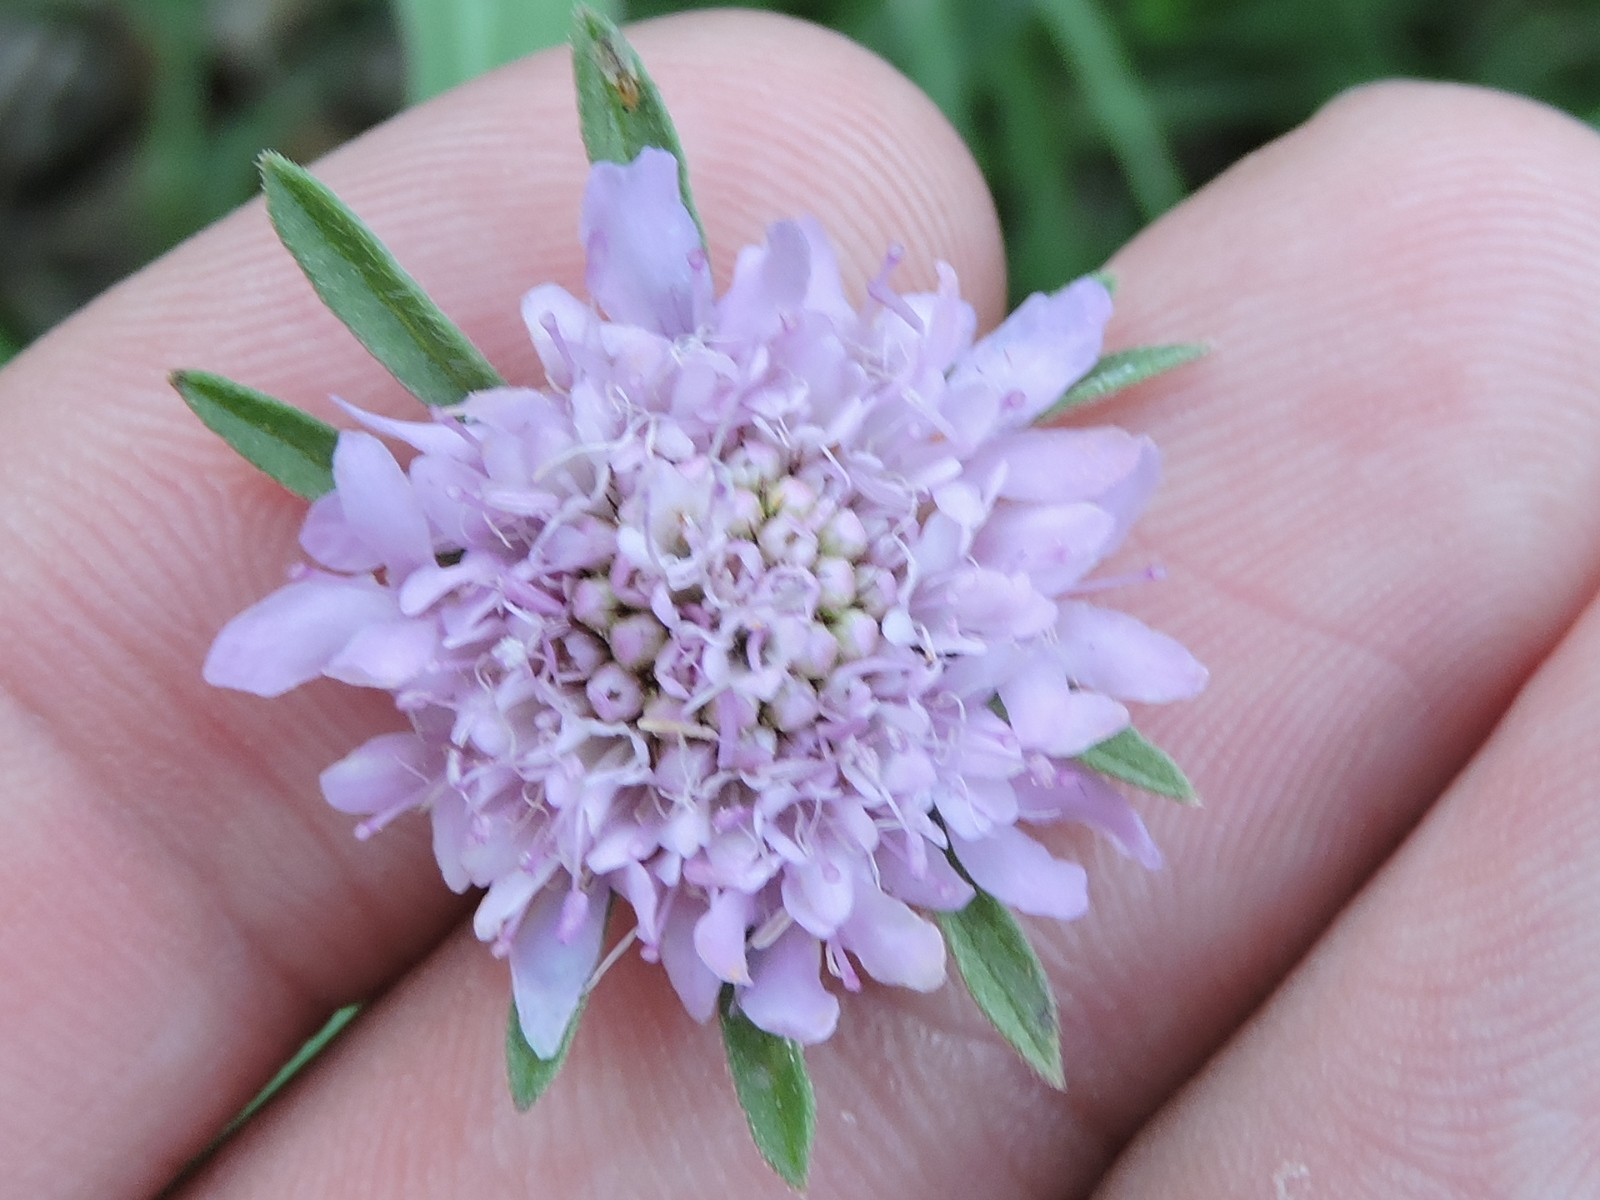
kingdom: Plantae
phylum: Tracheophyta
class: Magnoliopsida
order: Dipsacales
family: Caprifoliaceae
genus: Sixalix
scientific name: Sixalix atropurpurea
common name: Sweet scabious
